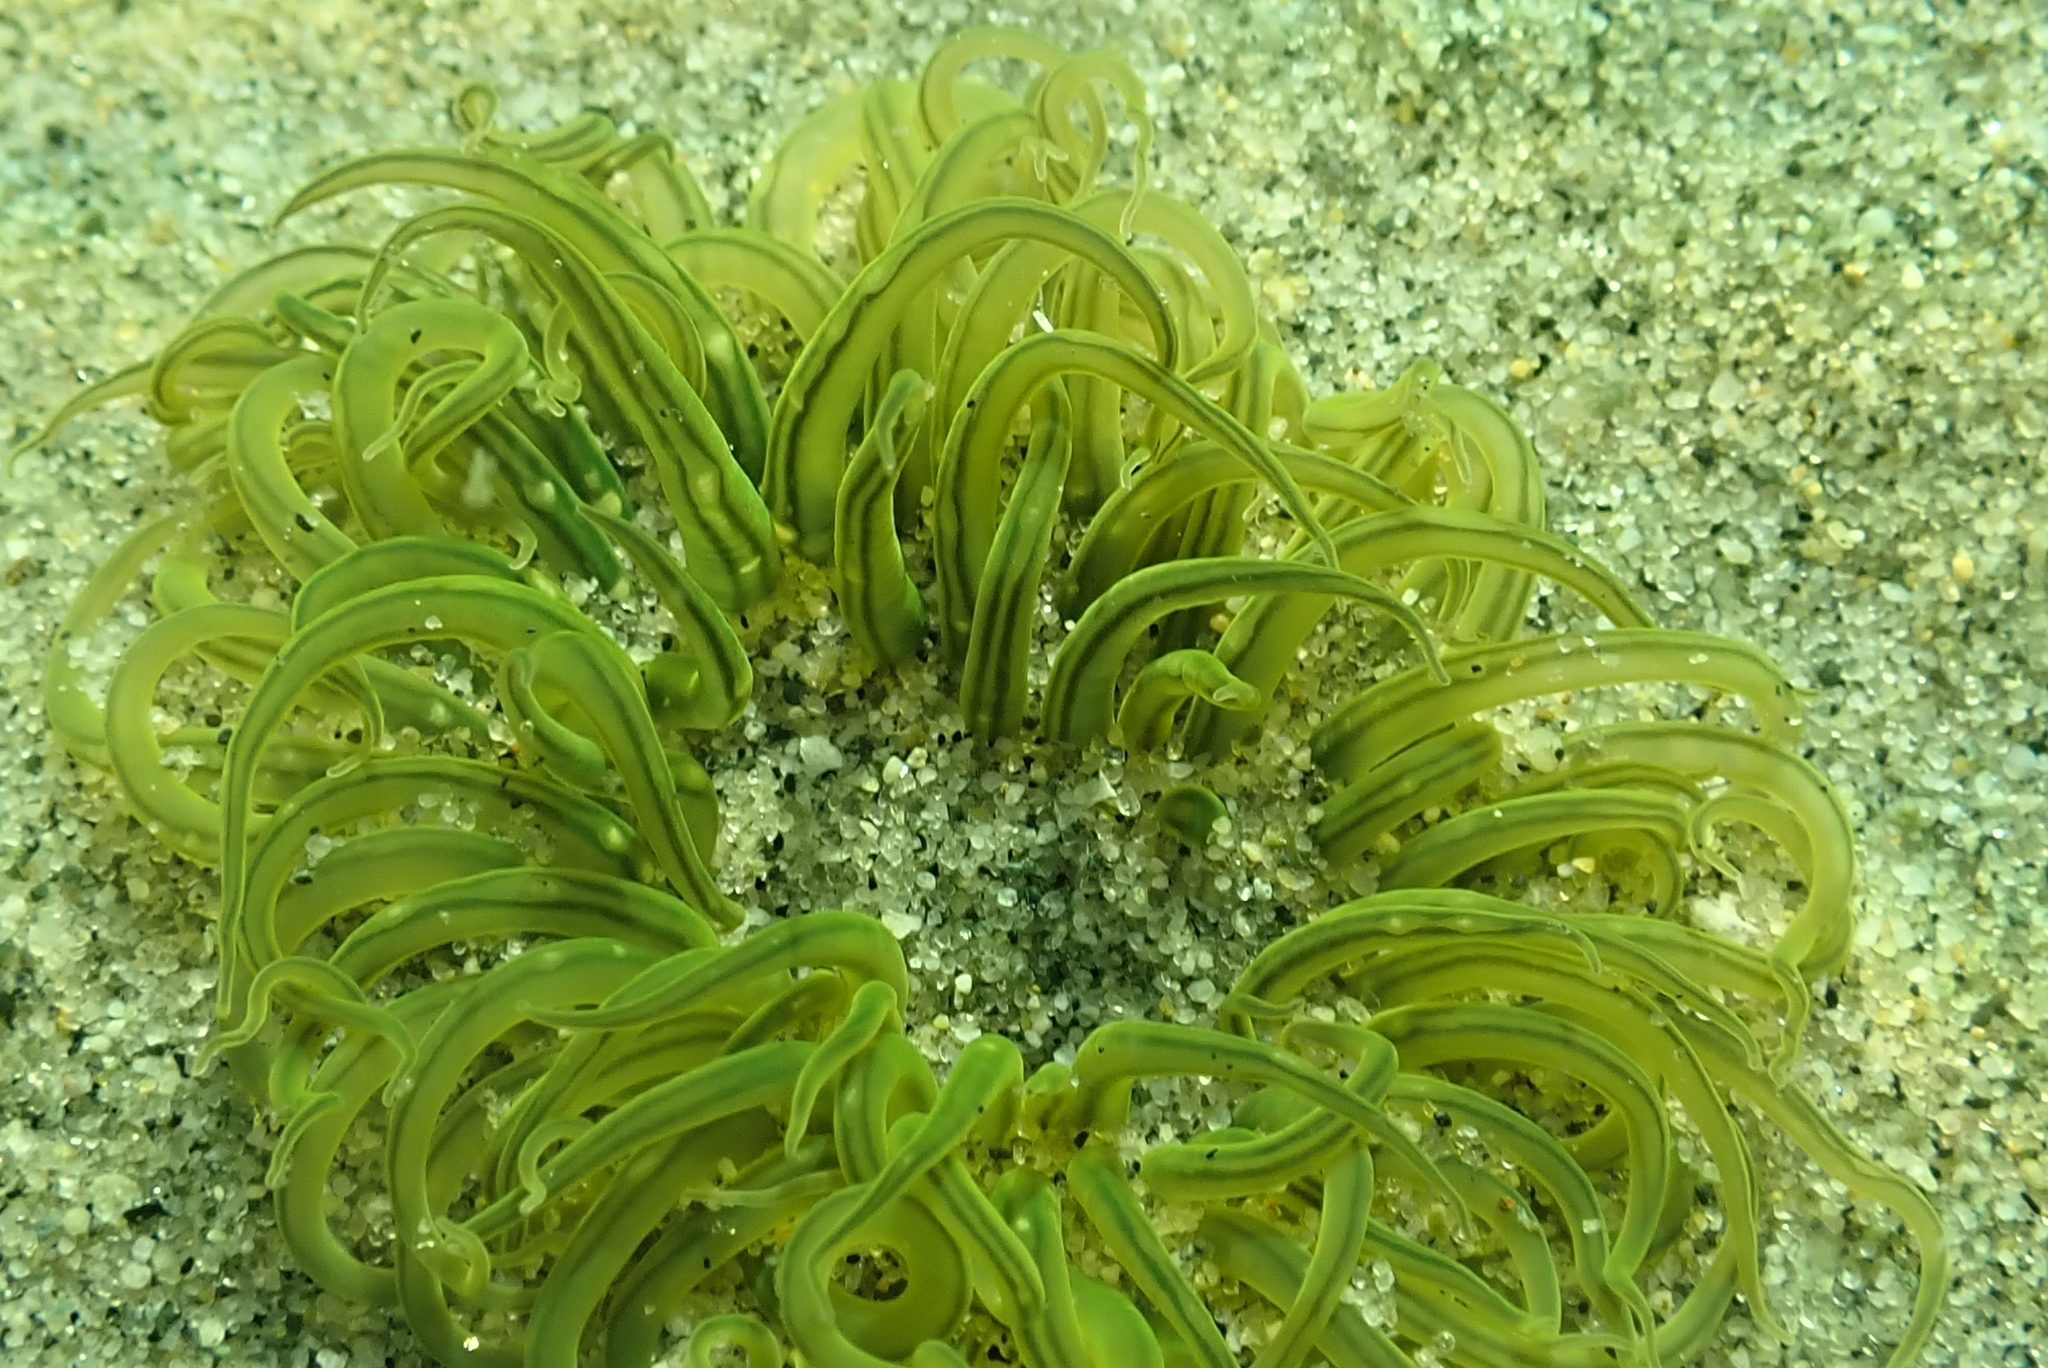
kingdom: Animalia
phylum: Cnidaria
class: Anthozoa
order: Actiniaria
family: Actiniidae
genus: Anthopleura
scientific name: Anthopleura artemisia
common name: Buried sea anemone
